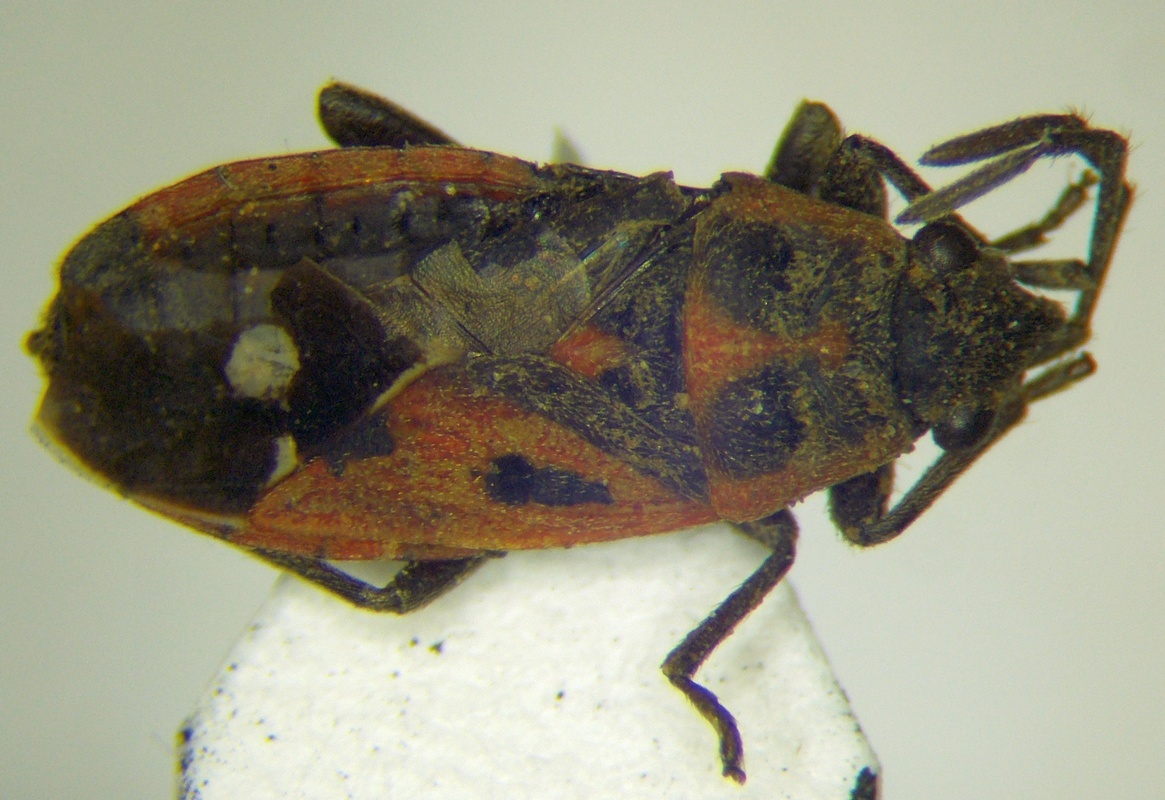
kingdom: Animalia
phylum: Arthropoda
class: Insecta
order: Hemiptera
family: Lygaeidae
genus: Melanocoryphus
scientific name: Melanocoryphus tristrami
